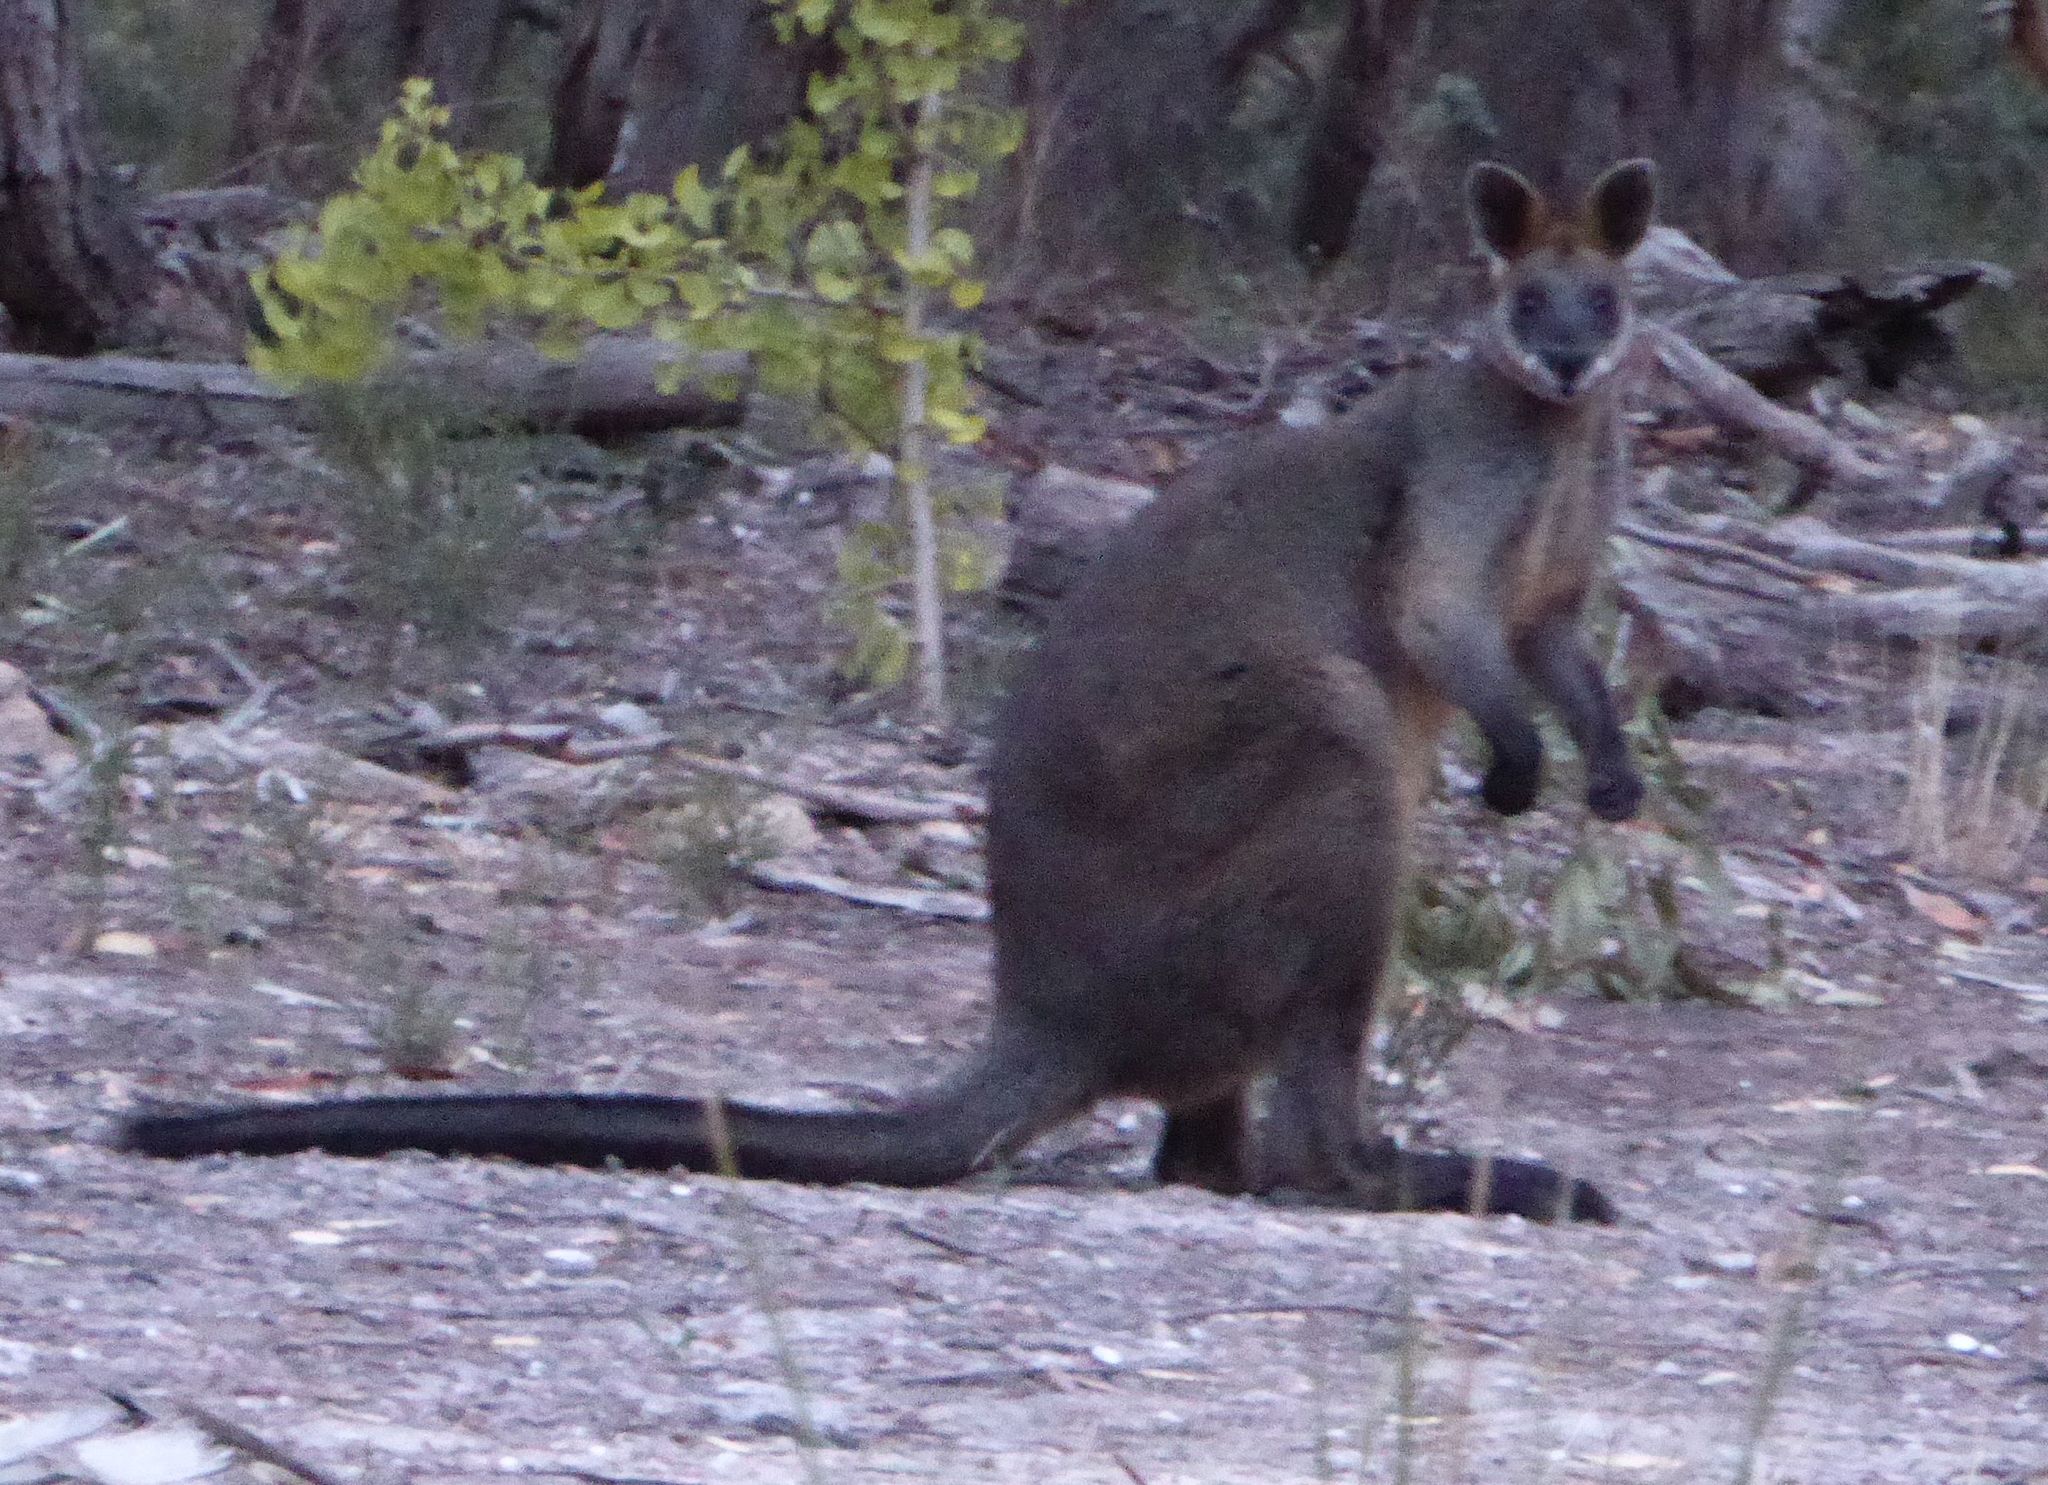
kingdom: Animalia
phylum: Chordata
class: Mammalia
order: Diprotodontia
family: Macropodidae
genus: Wallabia
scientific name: Wallabia bicolor
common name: Swamp wallaby
